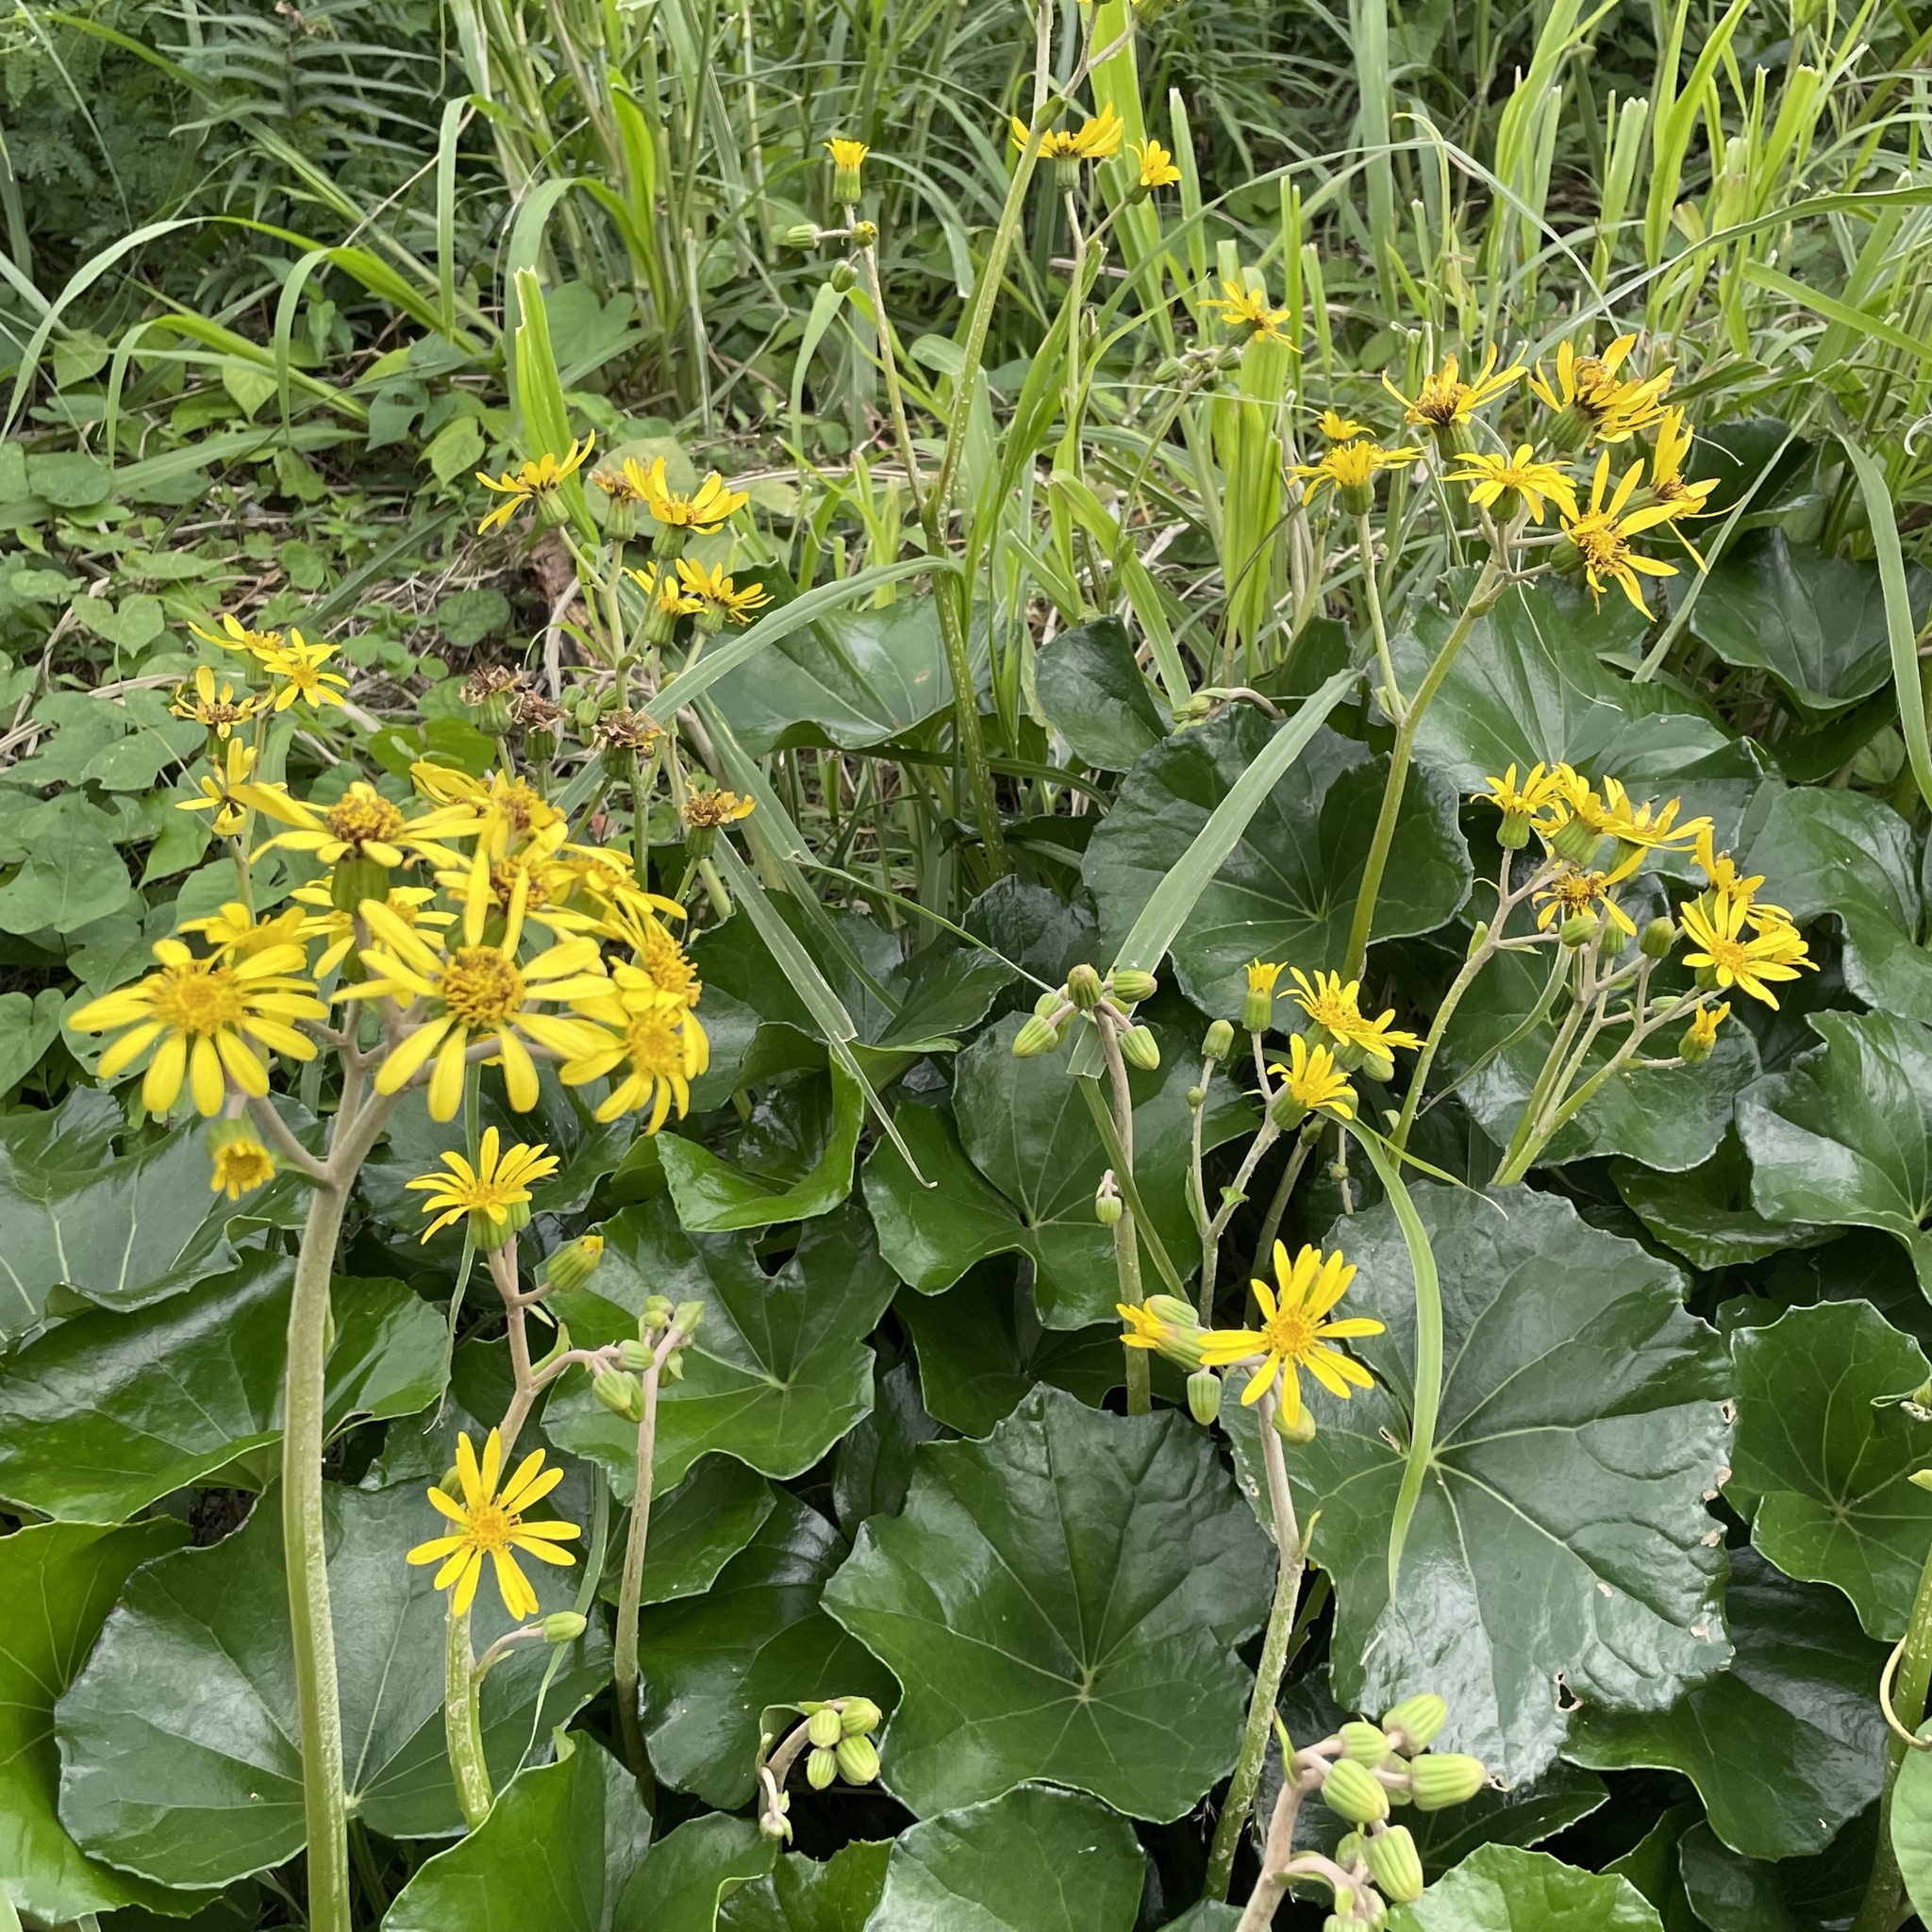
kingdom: Plantae
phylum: Tracheophyta
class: Magnoliopsida
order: Asterales
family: Asteraceae
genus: Farfugium
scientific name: Farfugium japonicum
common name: Leopardplant
